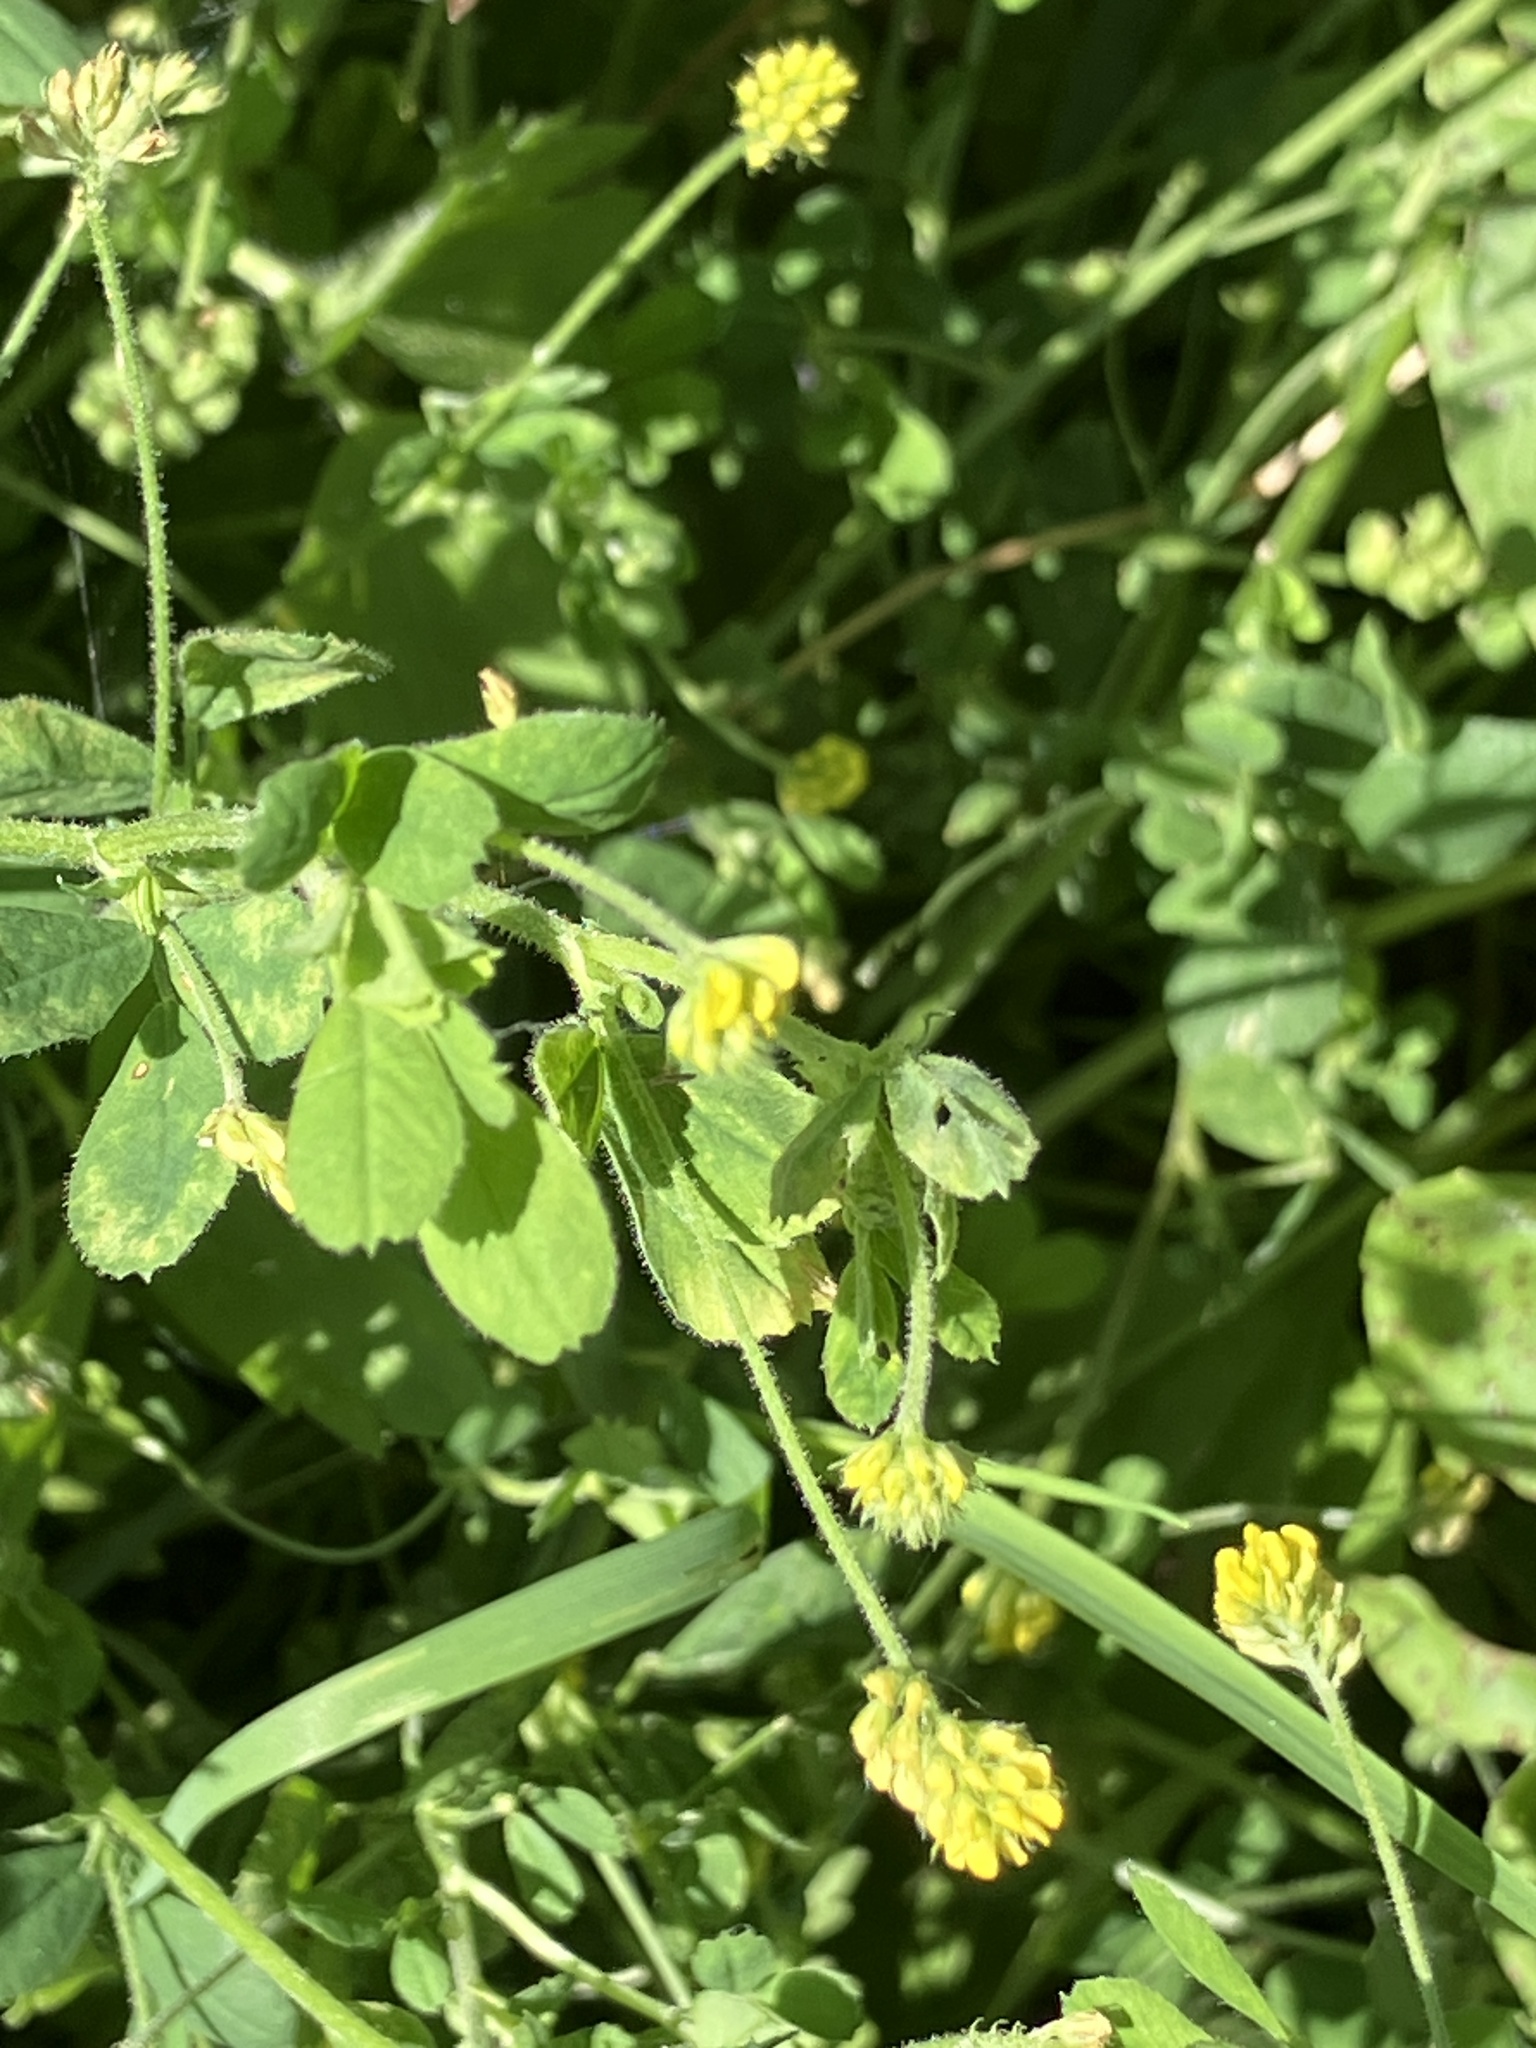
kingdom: Plantae
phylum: Tracheophyta
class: Magnoliopsida
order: Fabales
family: Fabaceae
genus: Medicago
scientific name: Medicago lupulina
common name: Black medick
